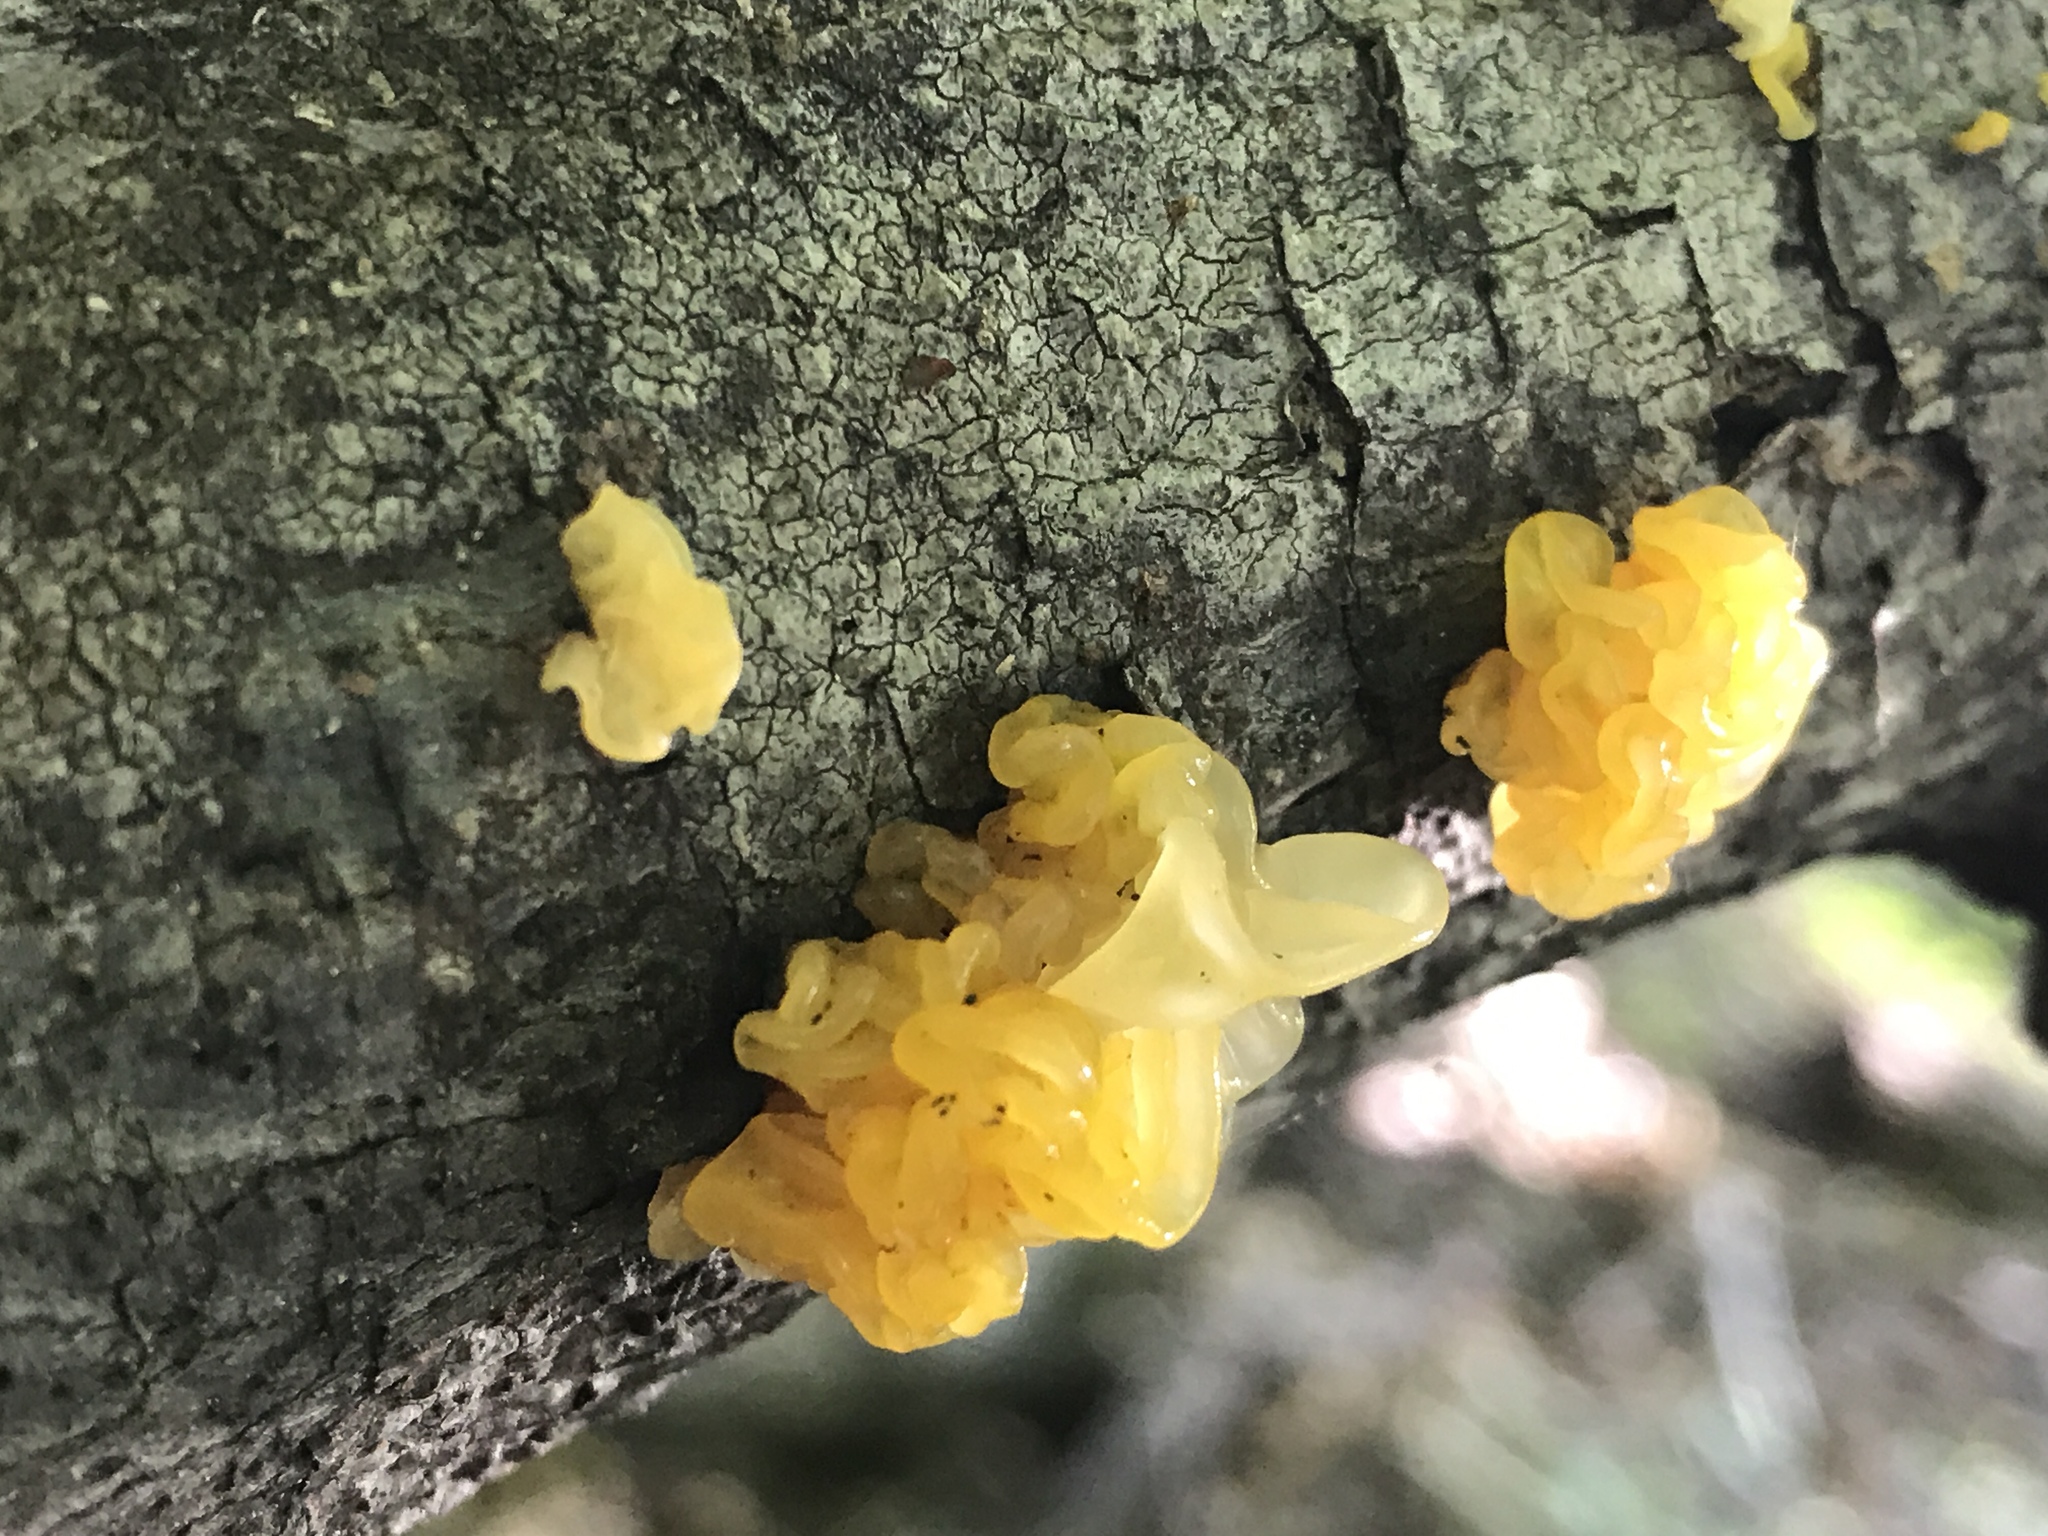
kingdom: Fungi
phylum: Basidiomycota
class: Tremellomycetes
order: Tremellales
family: Tremellaceae
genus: Tremella
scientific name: Tremella mesenterica
